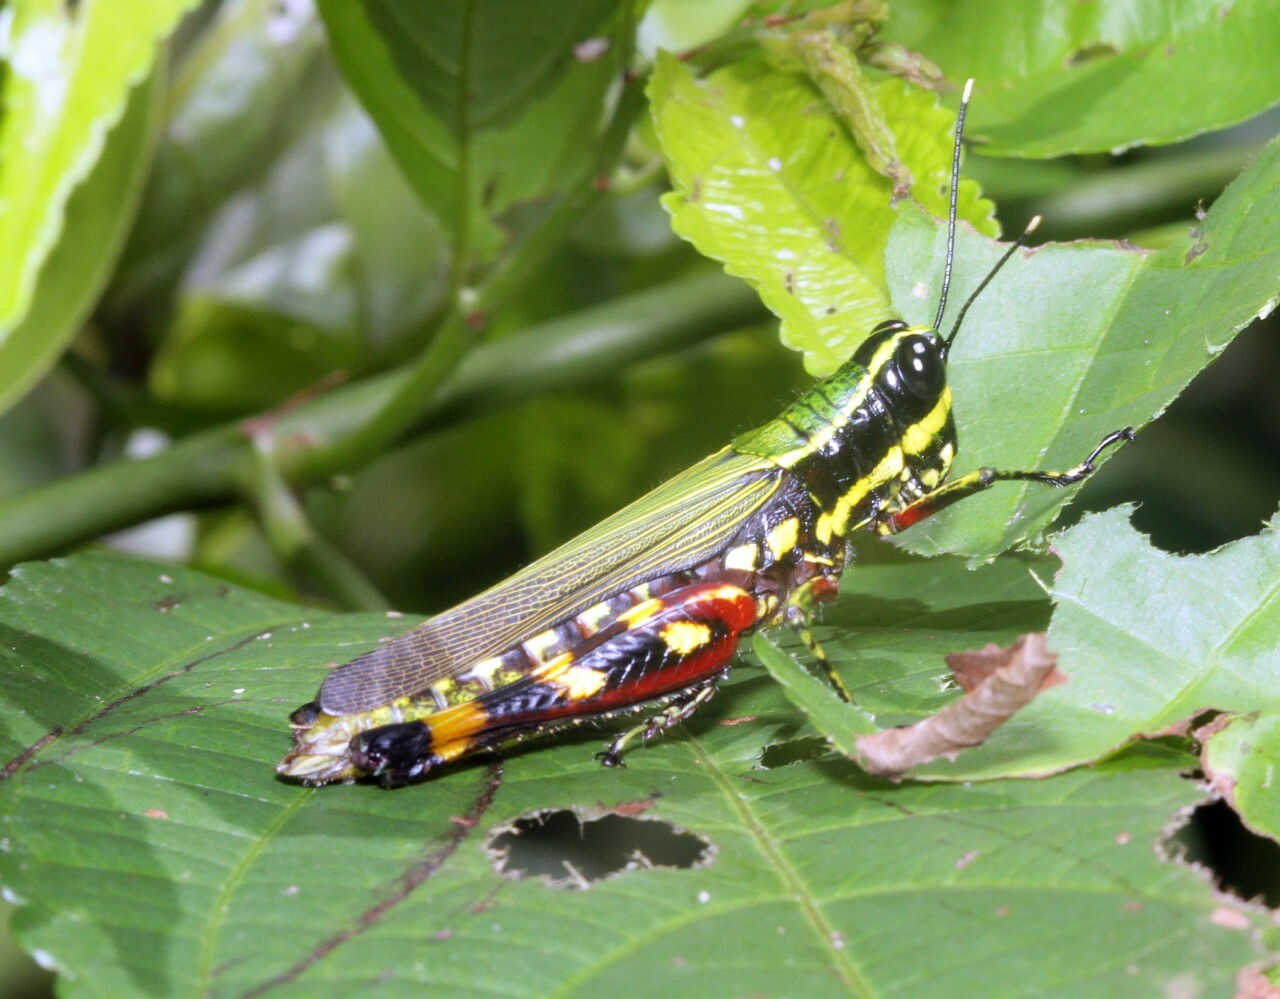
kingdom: Animalia
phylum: Arthropoda
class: Insecta
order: Orthoptera
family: Acrididae
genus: Tetrataenia
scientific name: Tetrataenia surinama
